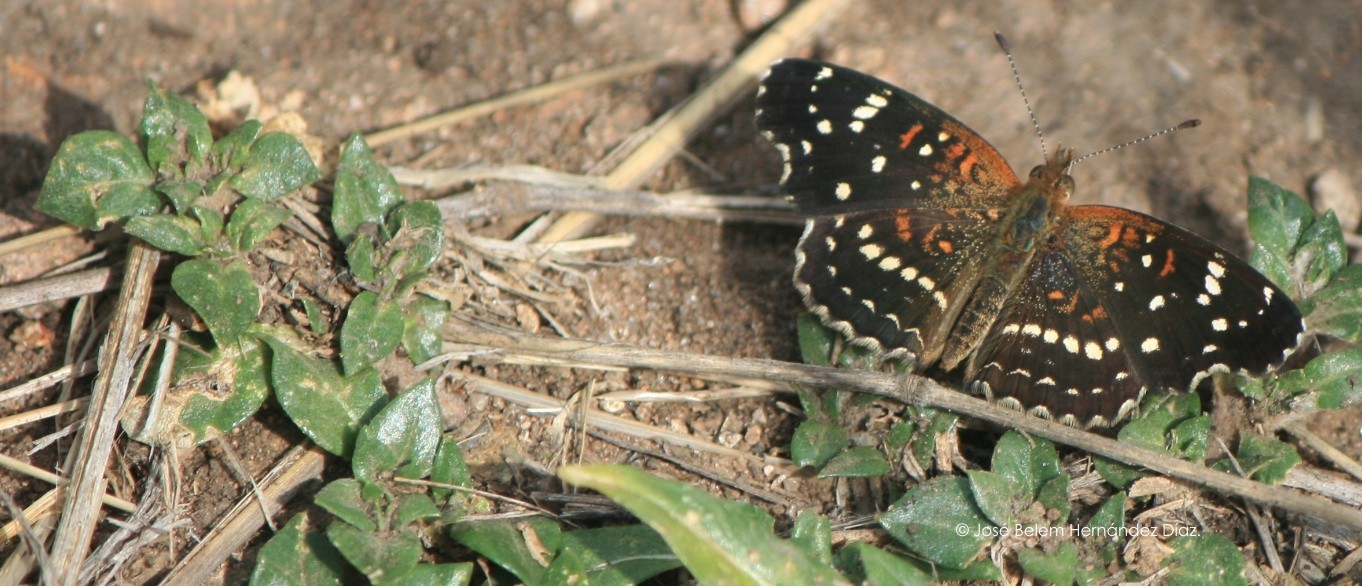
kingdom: Animalia
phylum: Arthropoda
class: Insecta
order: Lepidoptera
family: Nymphalidae
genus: Anthanassa
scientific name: Anthanassa texana
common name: Texan crescent
